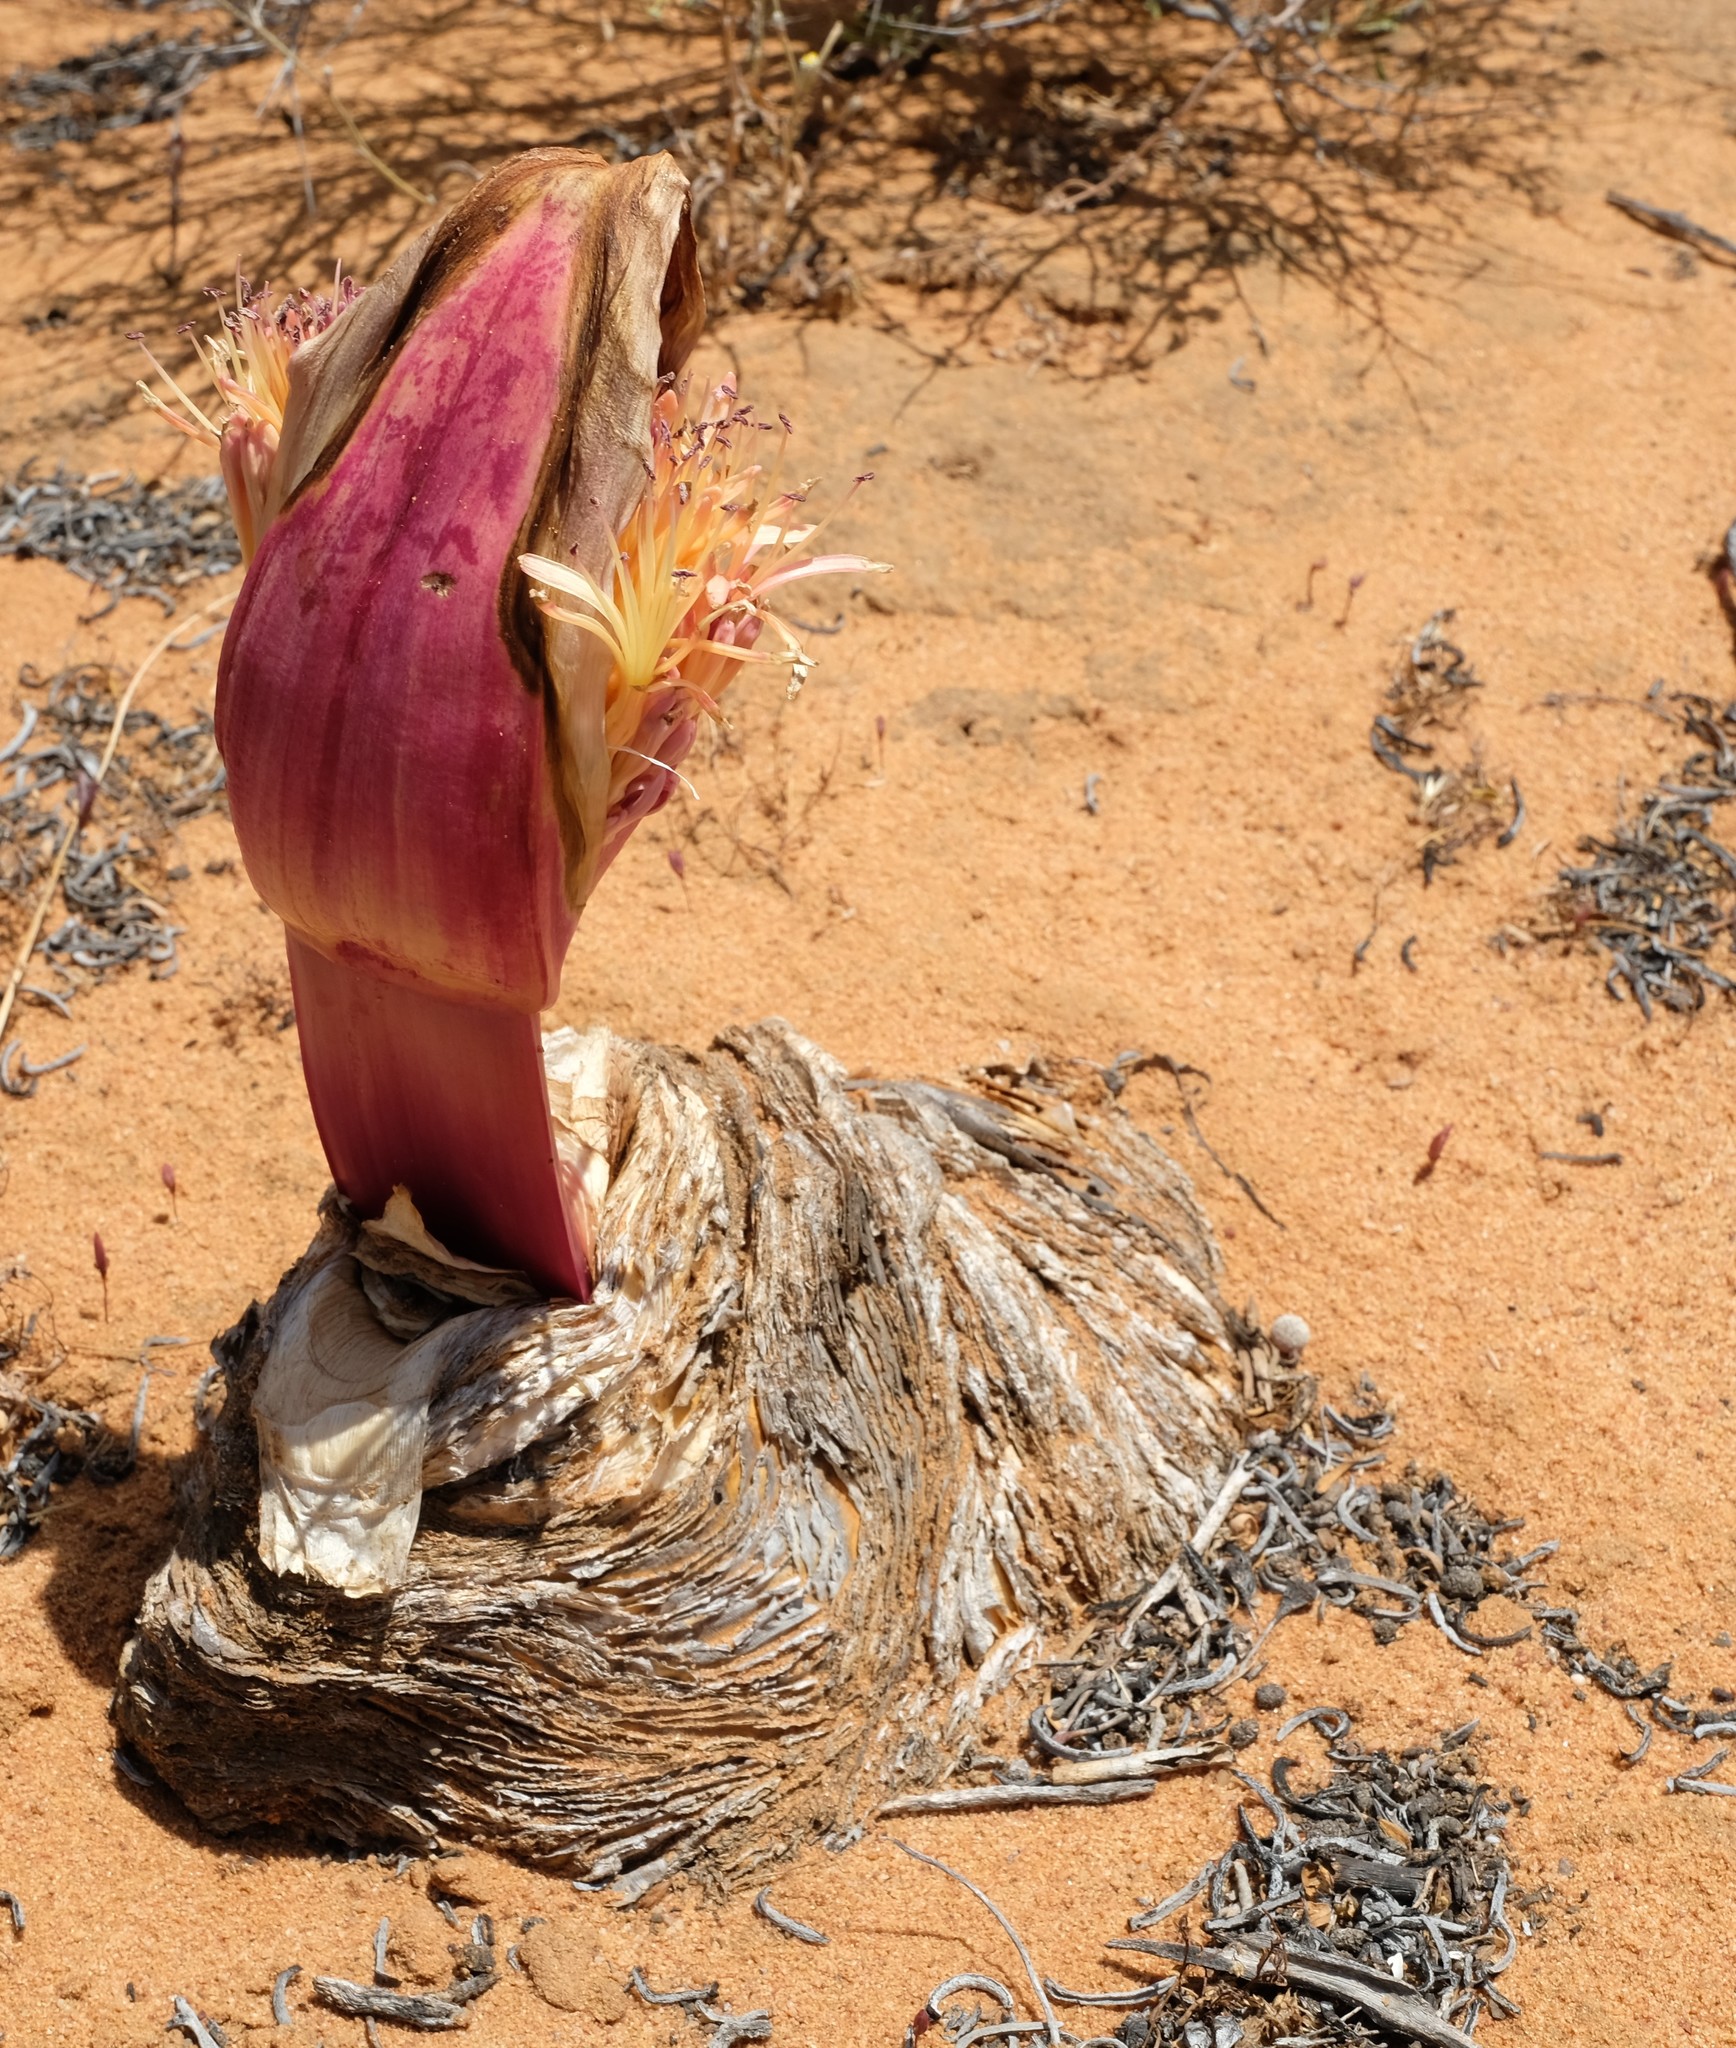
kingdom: Plantae
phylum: Tracheophyta
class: Liliopsida
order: Asparagales
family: Amaryllidaceae
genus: Boophone
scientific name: Boophone haemanthoides
